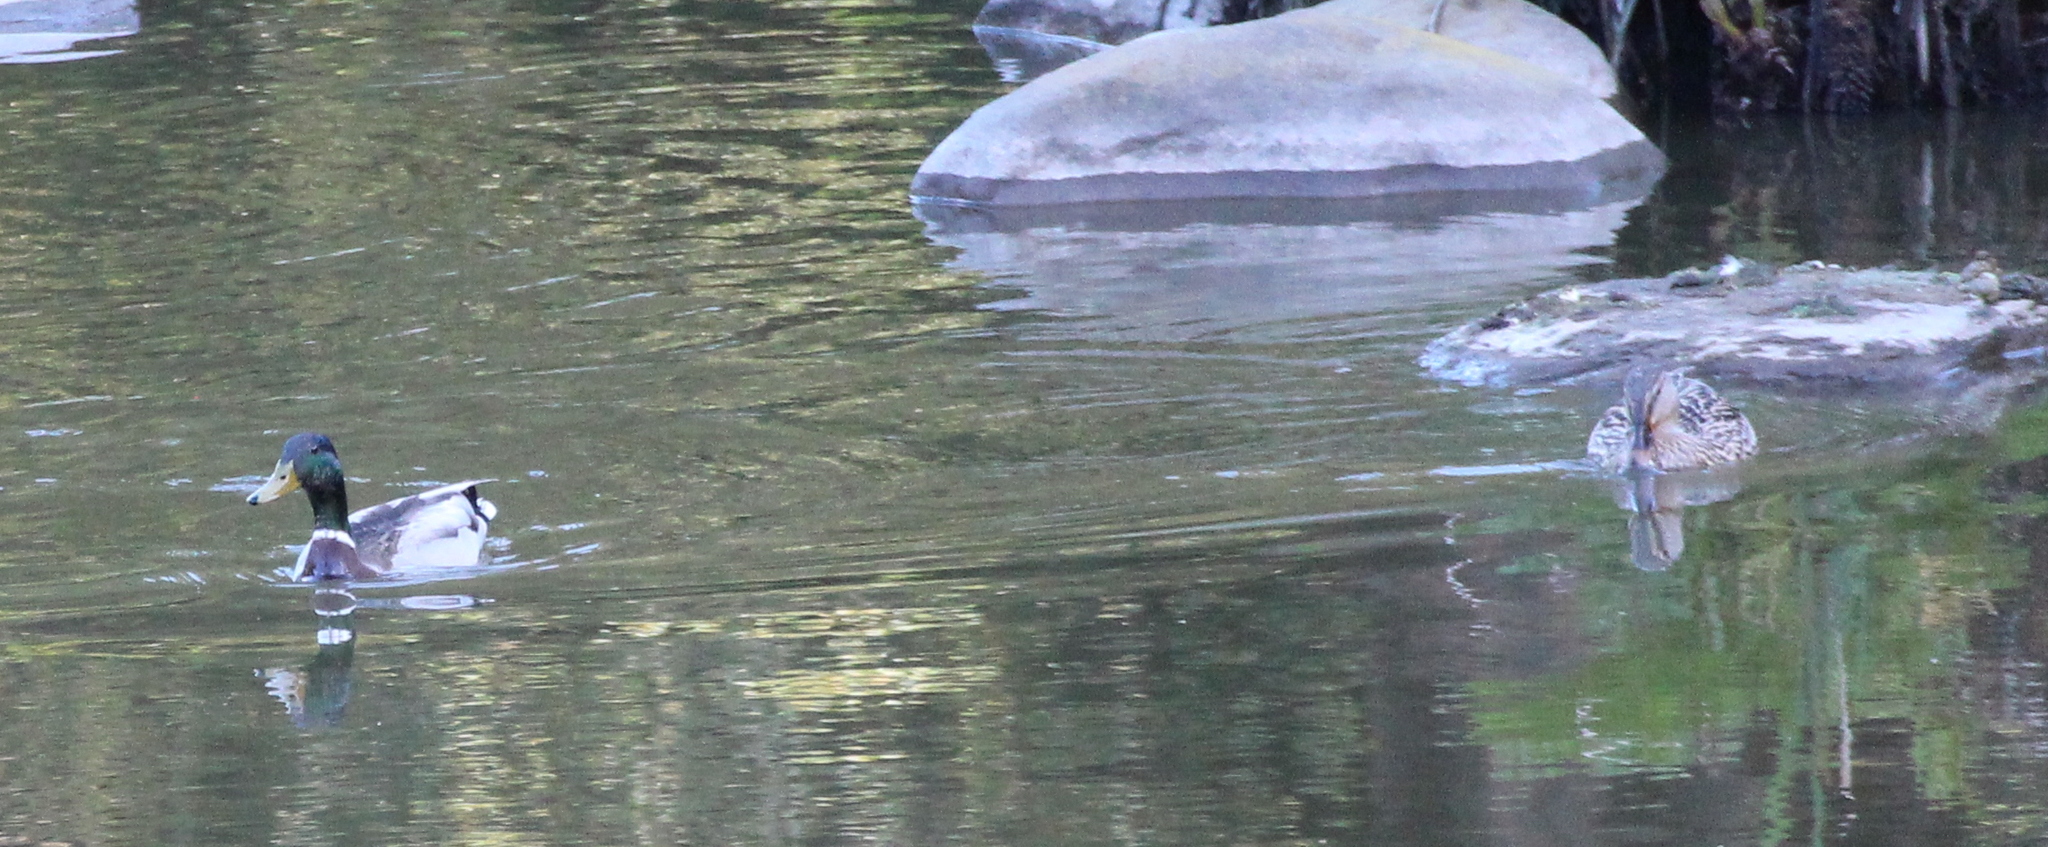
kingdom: Animalia
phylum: Chordata
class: Aves
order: Anseriformes
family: Anatidae
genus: Anas
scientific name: Anas platyrhynchos
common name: Mallard
